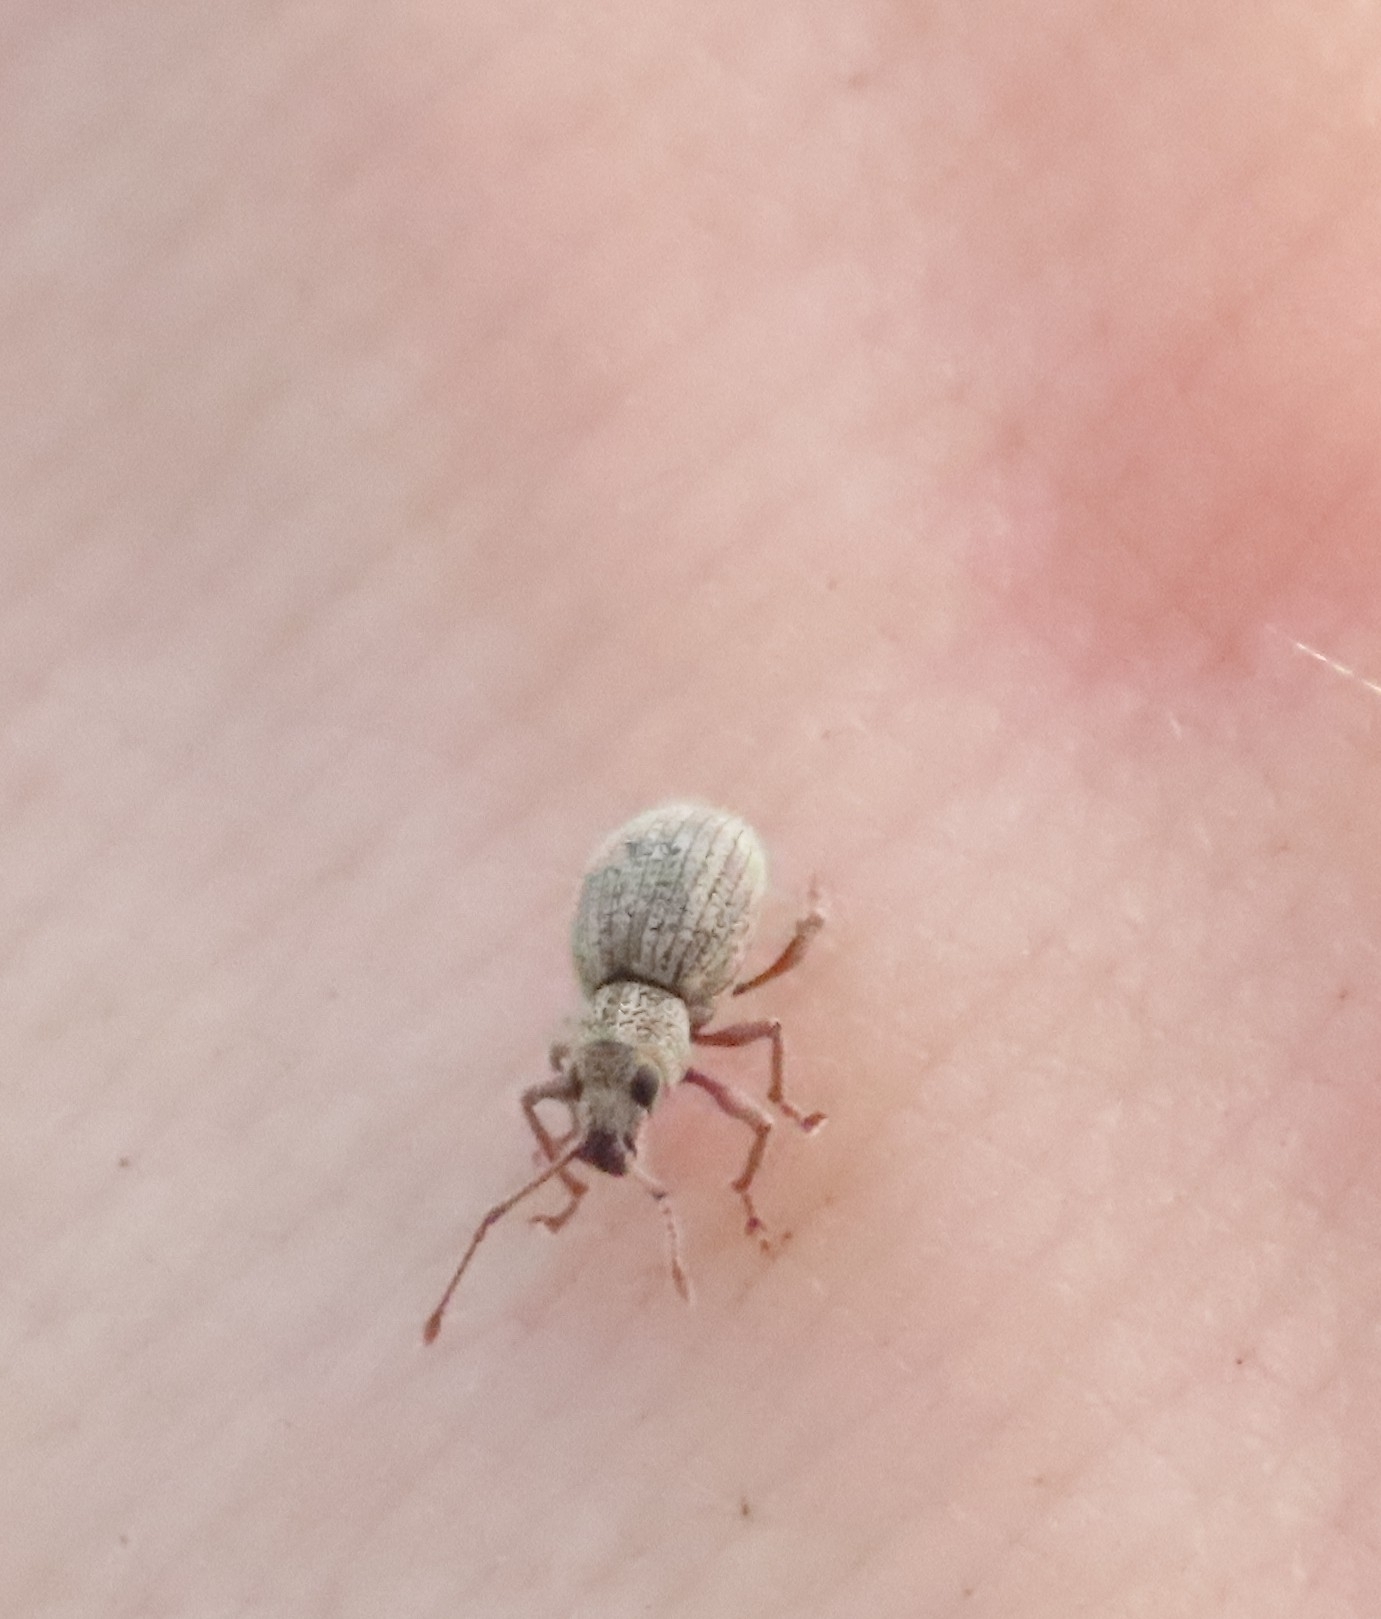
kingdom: Animalia
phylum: Arthropoda
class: Insecta
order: Coleoptera
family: Curculionidae
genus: Calomycterus
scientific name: Calomycterus setarius
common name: Weevil
